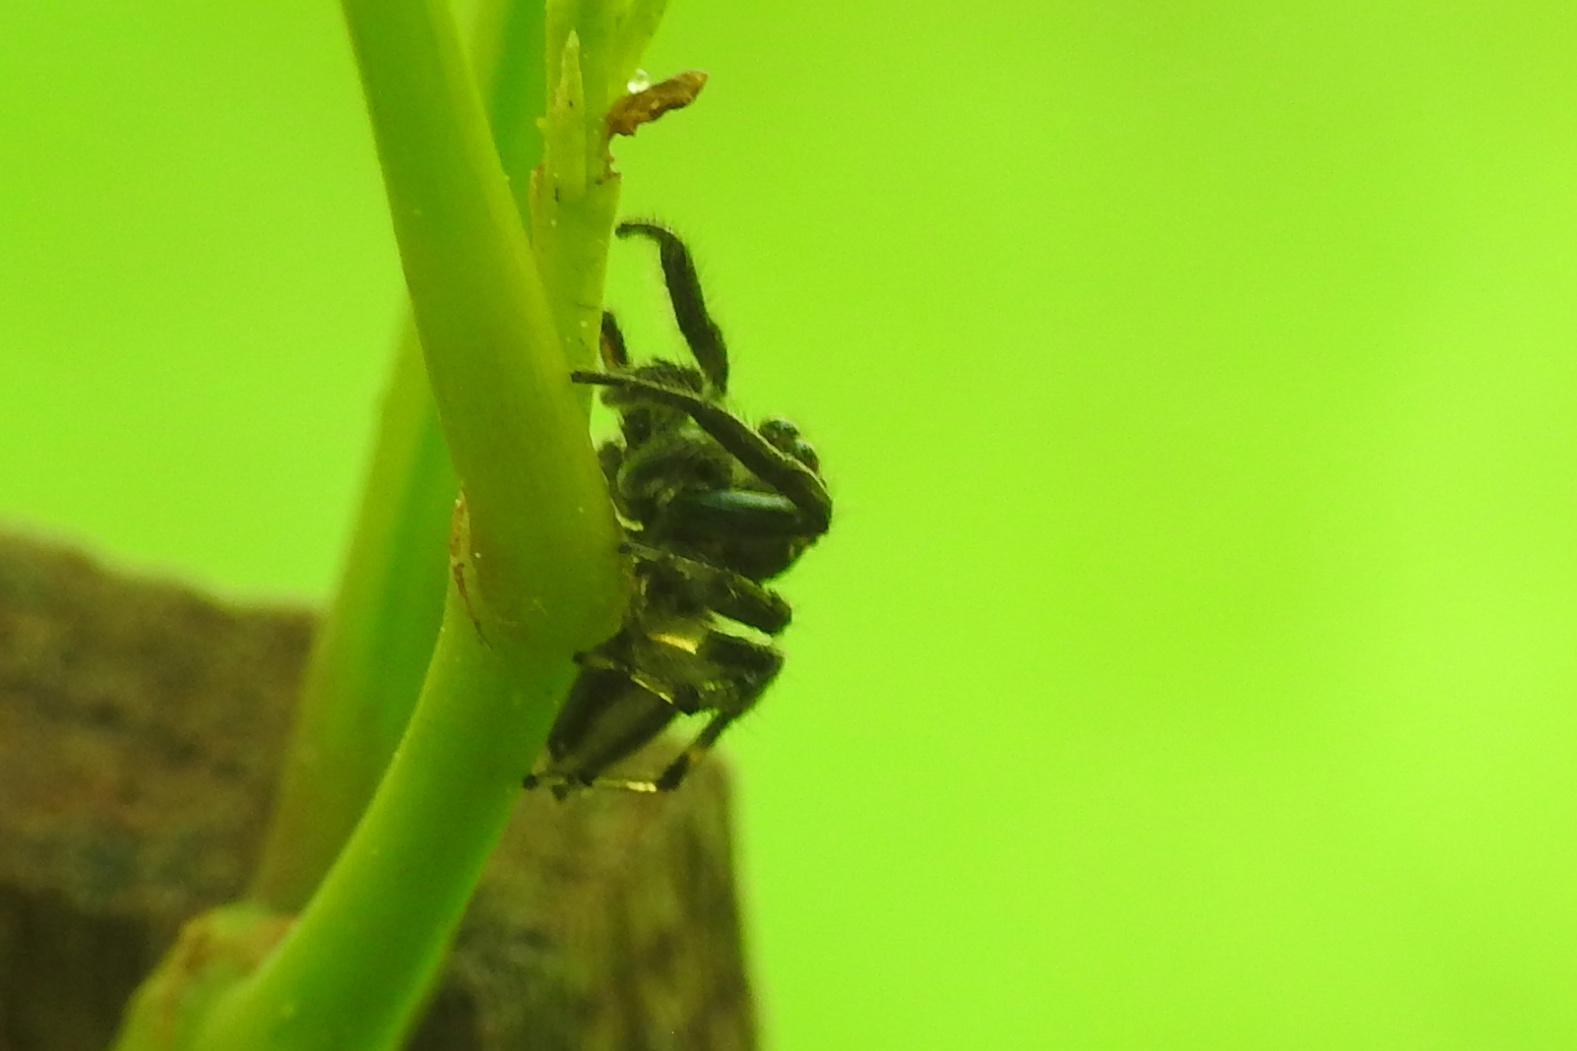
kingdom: Animalia
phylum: Arthropoda
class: Arachnida
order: Araneae
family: Salticidae
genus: Colonus
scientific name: Colonus sylvanus
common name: Jumping spiders
